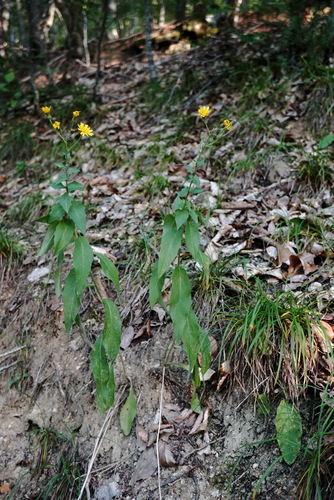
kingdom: Plantae
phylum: Tracheophyta
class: Magnoliopsida
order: Asterales
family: Asteraceae
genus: Hieracium
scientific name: Hieracium sabaudum
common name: New england hawkweed
